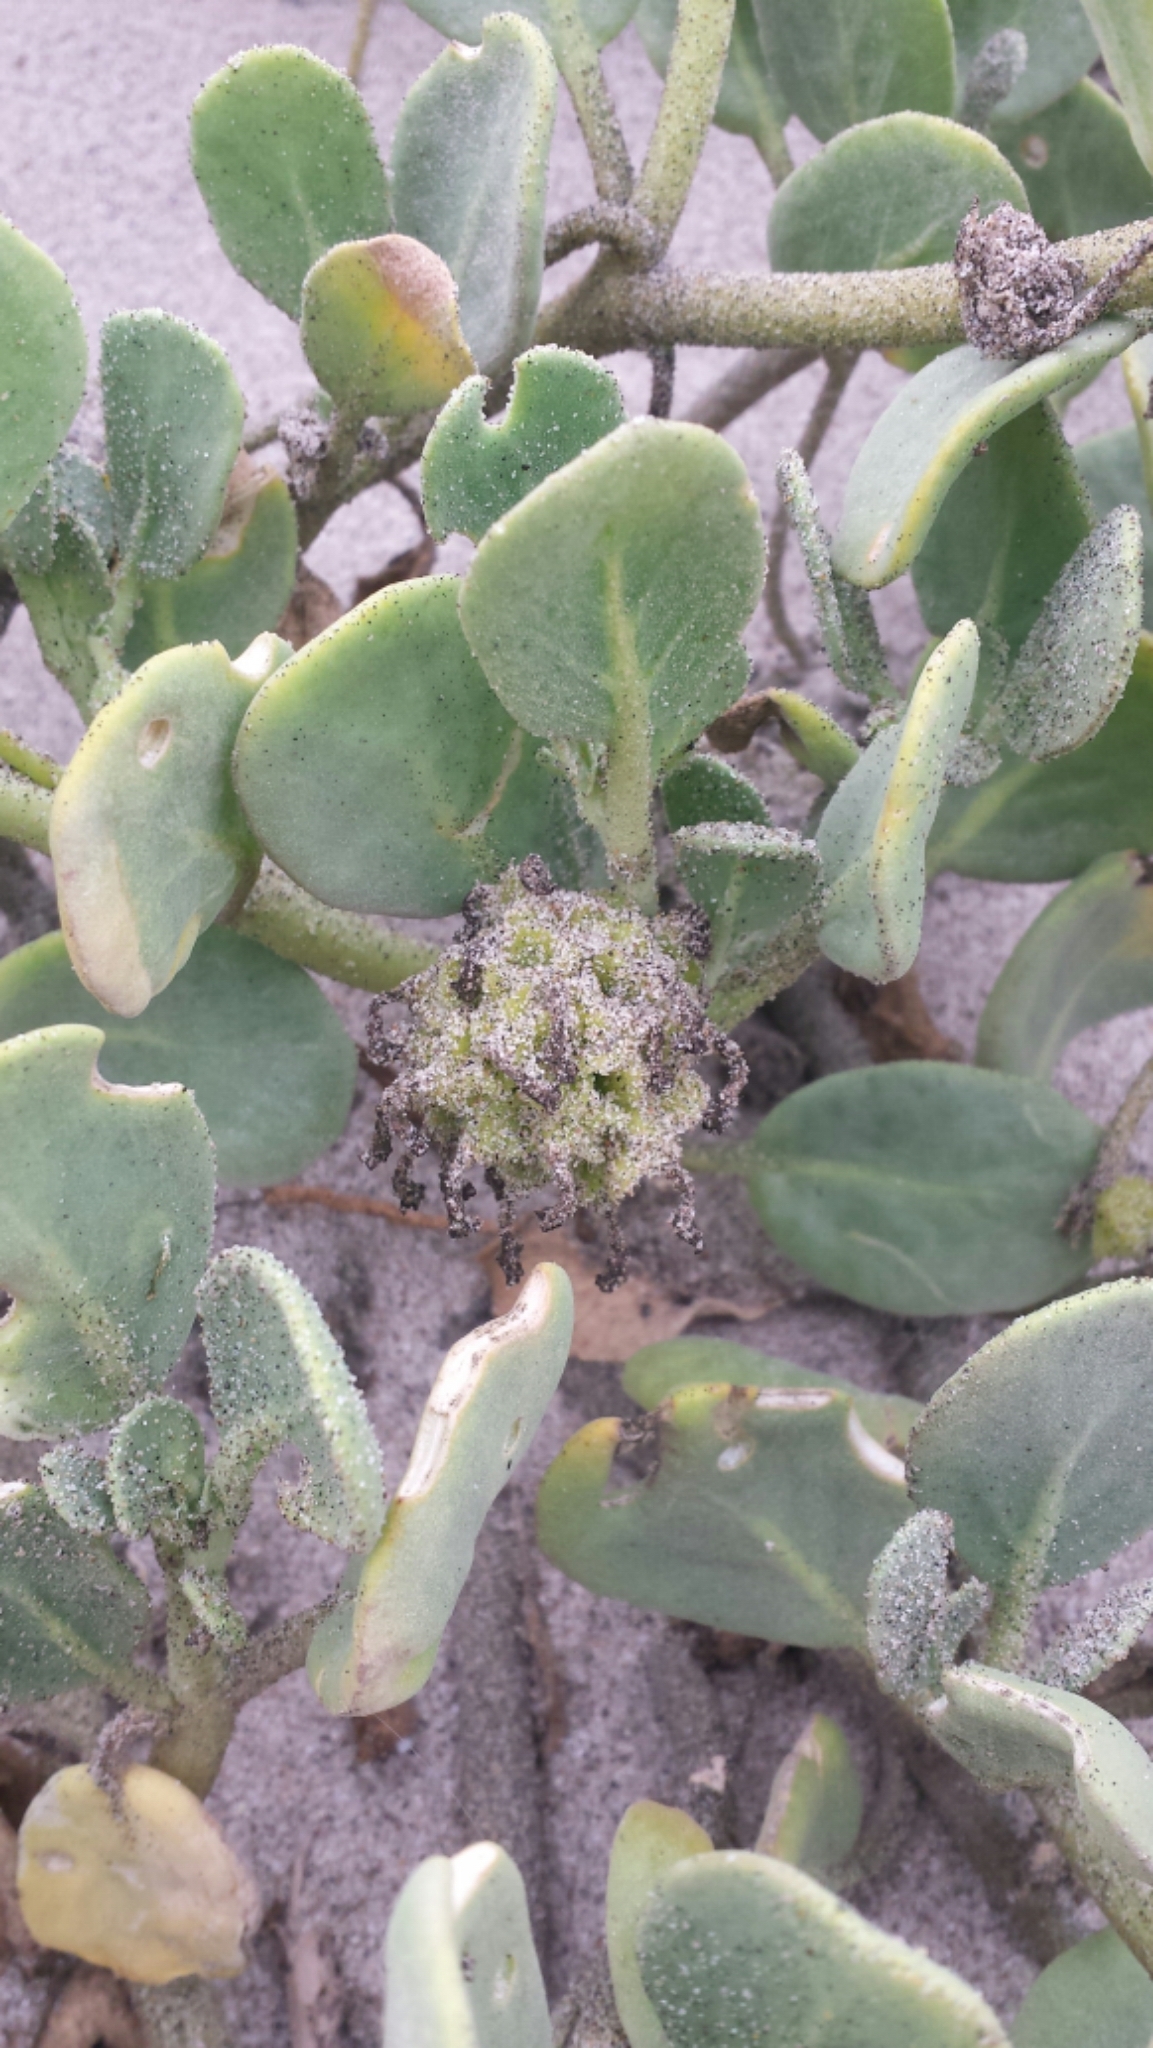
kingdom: Plantae
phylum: Tracheophyta
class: Magnoliopsida
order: Caryophyllales
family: Nyctaginaceae
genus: Abronia
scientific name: Abronia maritima
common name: Red sand-verbena
